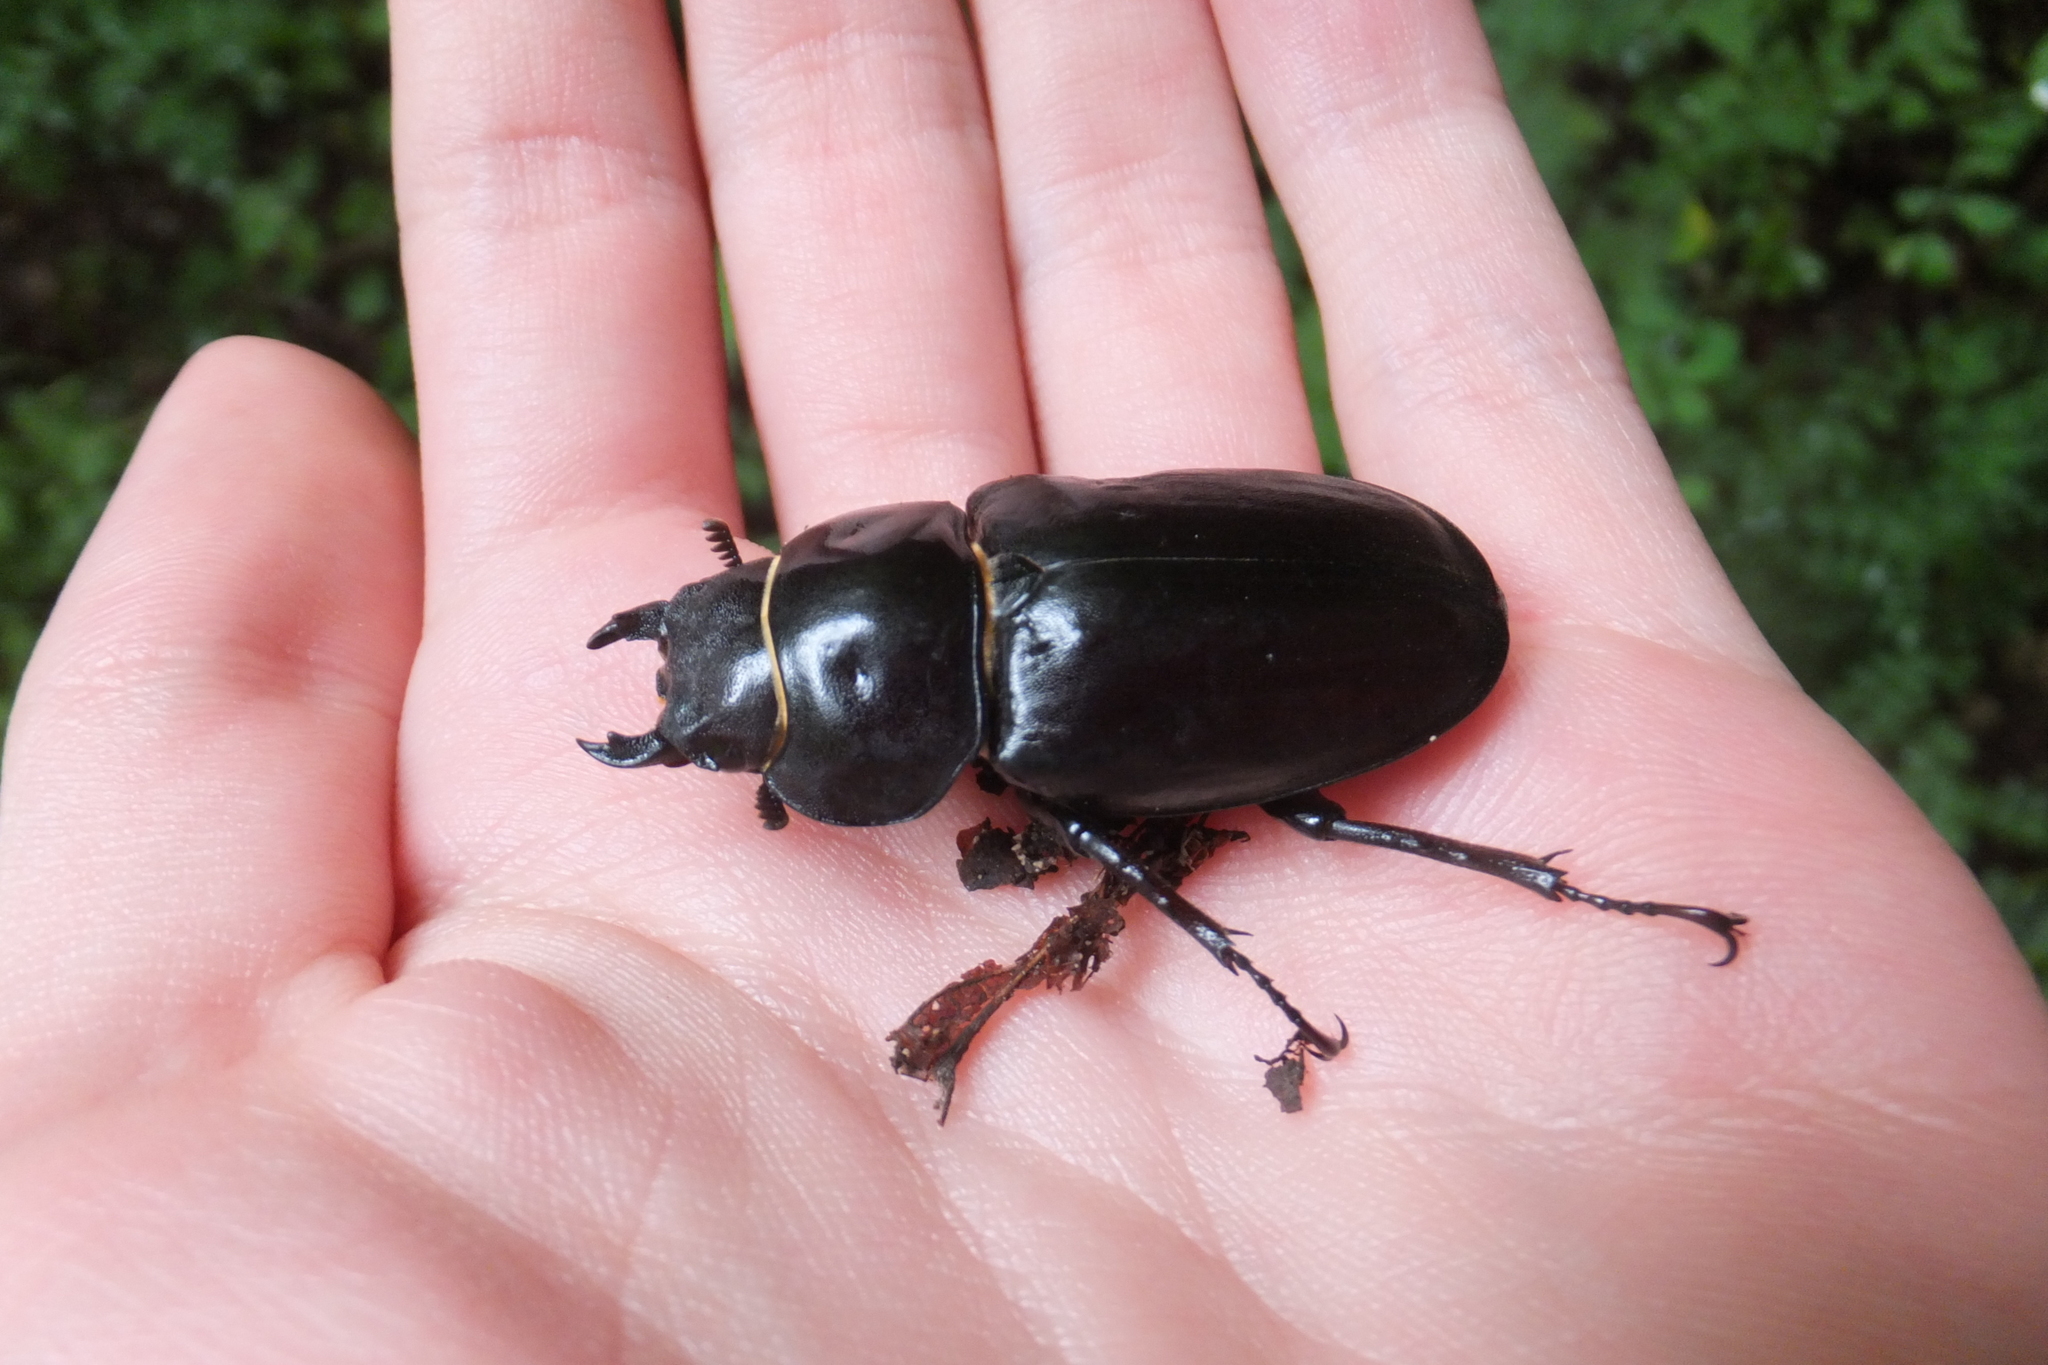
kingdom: Animalia
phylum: Arthropoda
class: Insecta
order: Coleoptera
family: Lucanidae
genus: Lucanus
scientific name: Lucanus tetraodon
